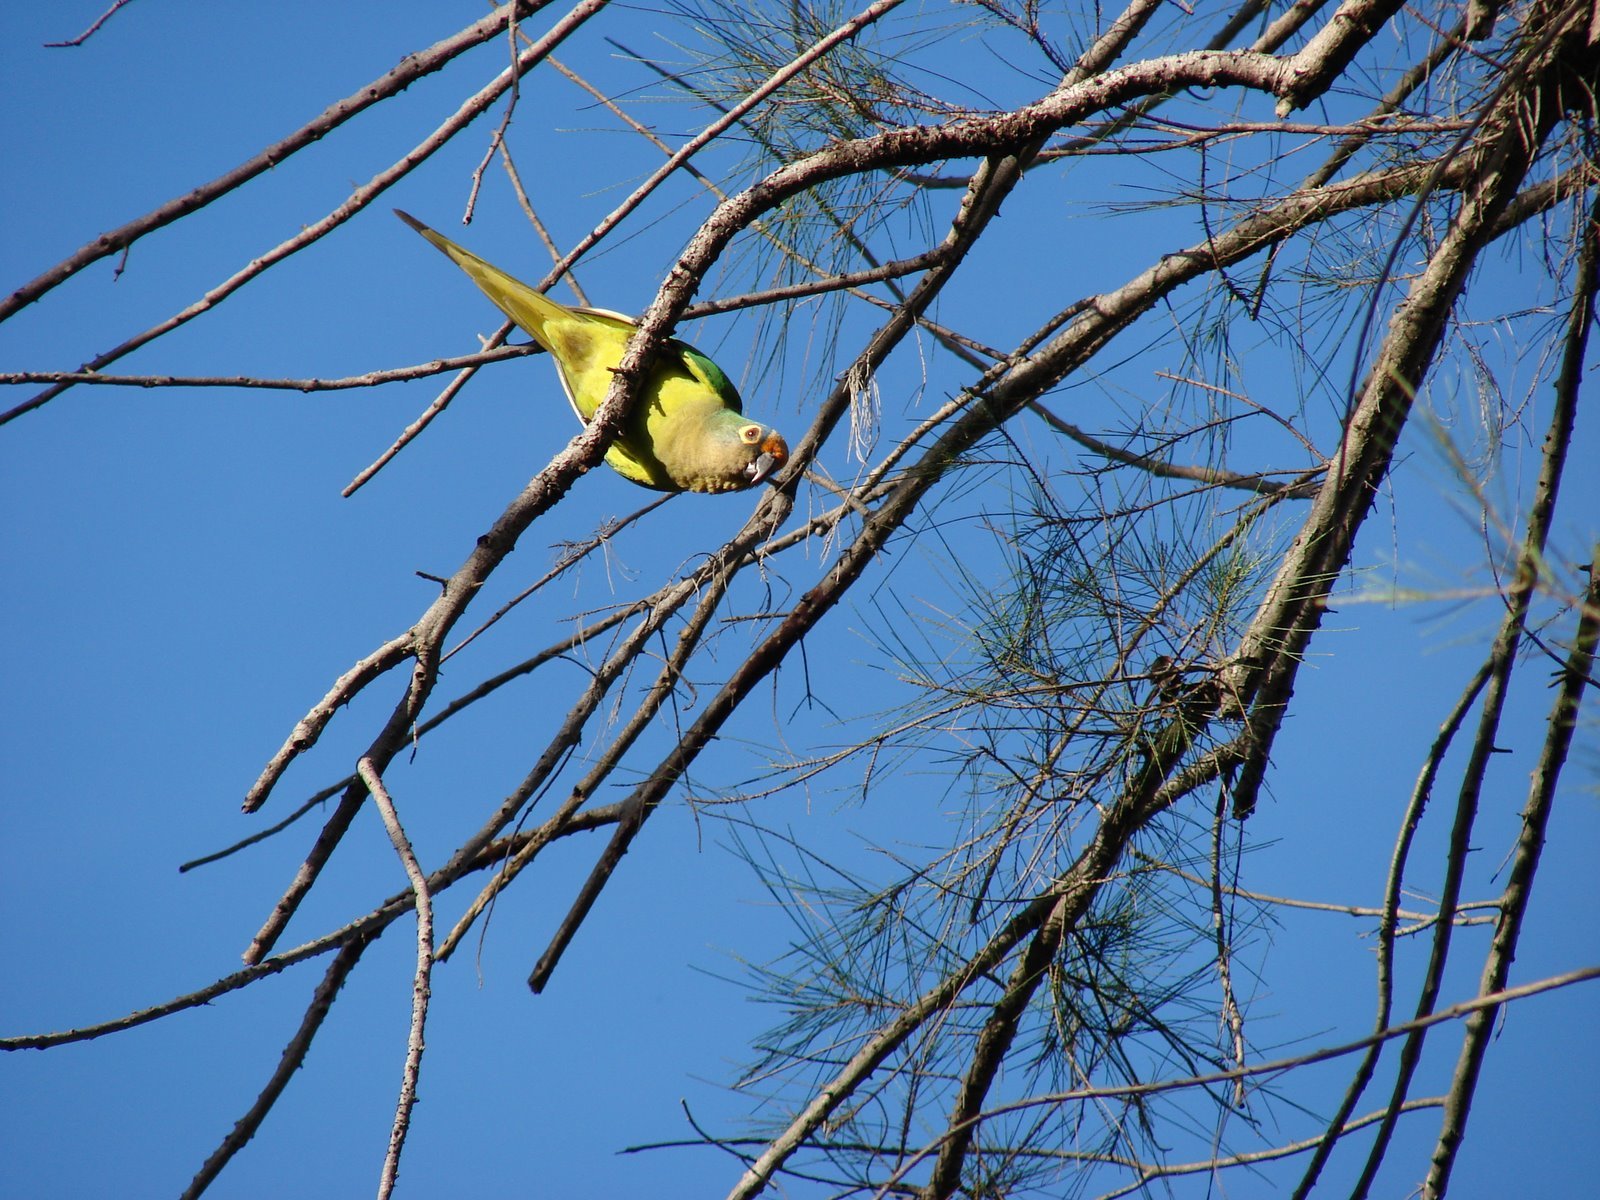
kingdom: Animalia
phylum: Chordata
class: Aves
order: Psittaciformes
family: Psittacidae
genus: Aratinga
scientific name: Aratinga aurea
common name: Peach-fronted parakeet
